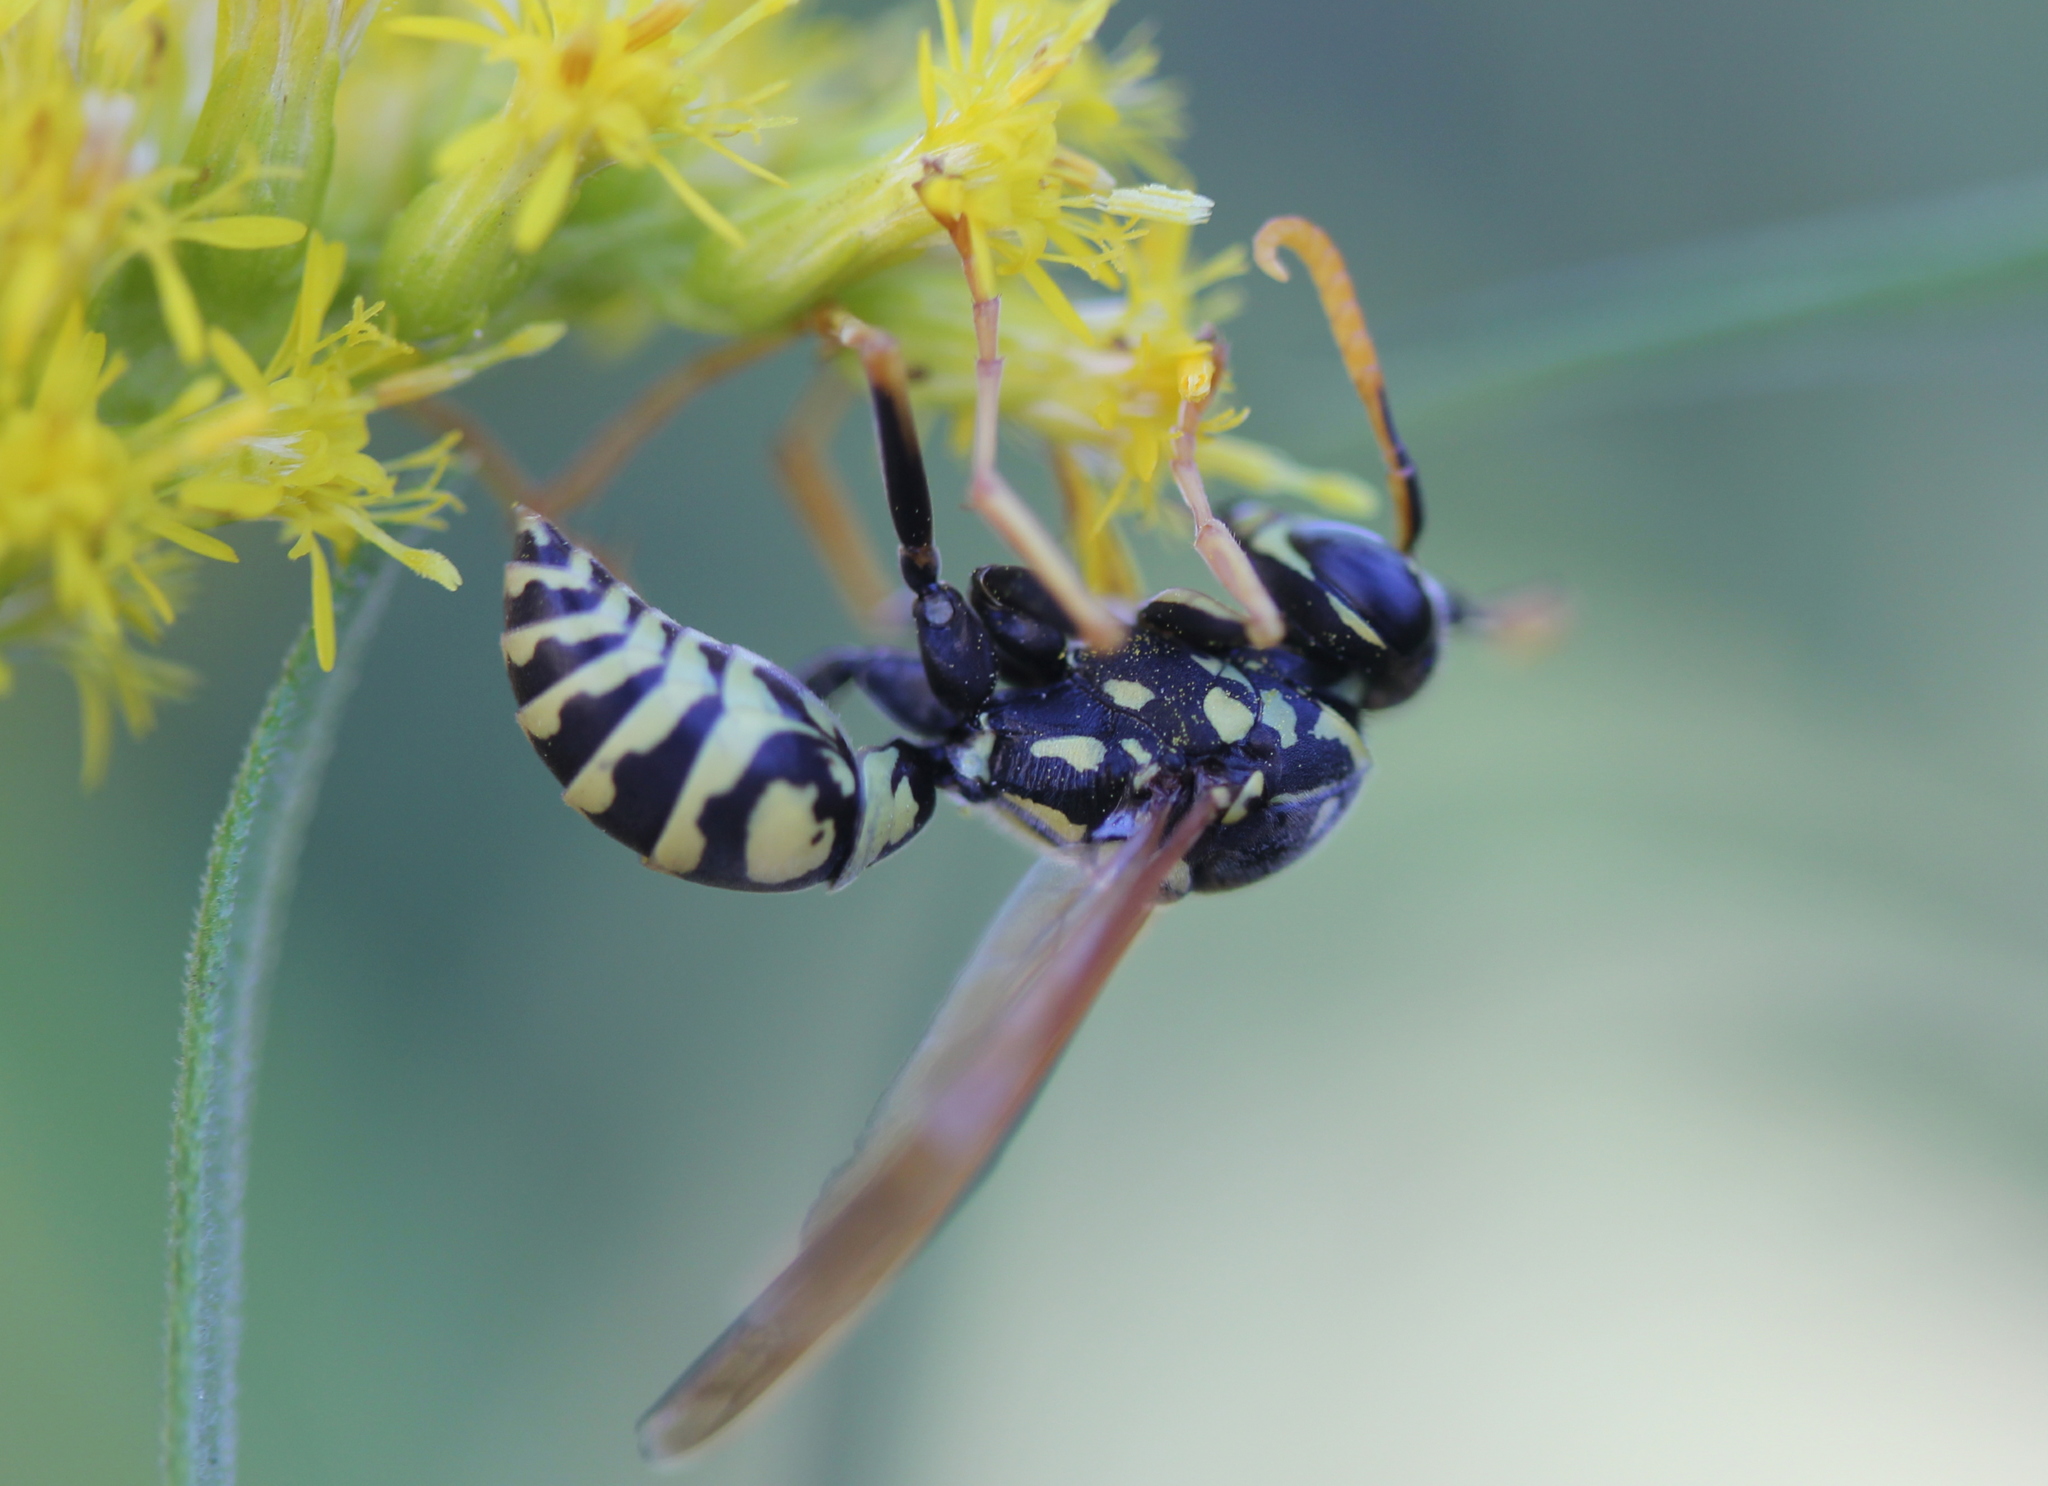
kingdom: Animalia
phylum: Arthropoda
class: Insecta
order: Hymenoptera
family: Eumenidae
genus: Polistes
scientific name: Polistes dominula
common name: Paper wasp
